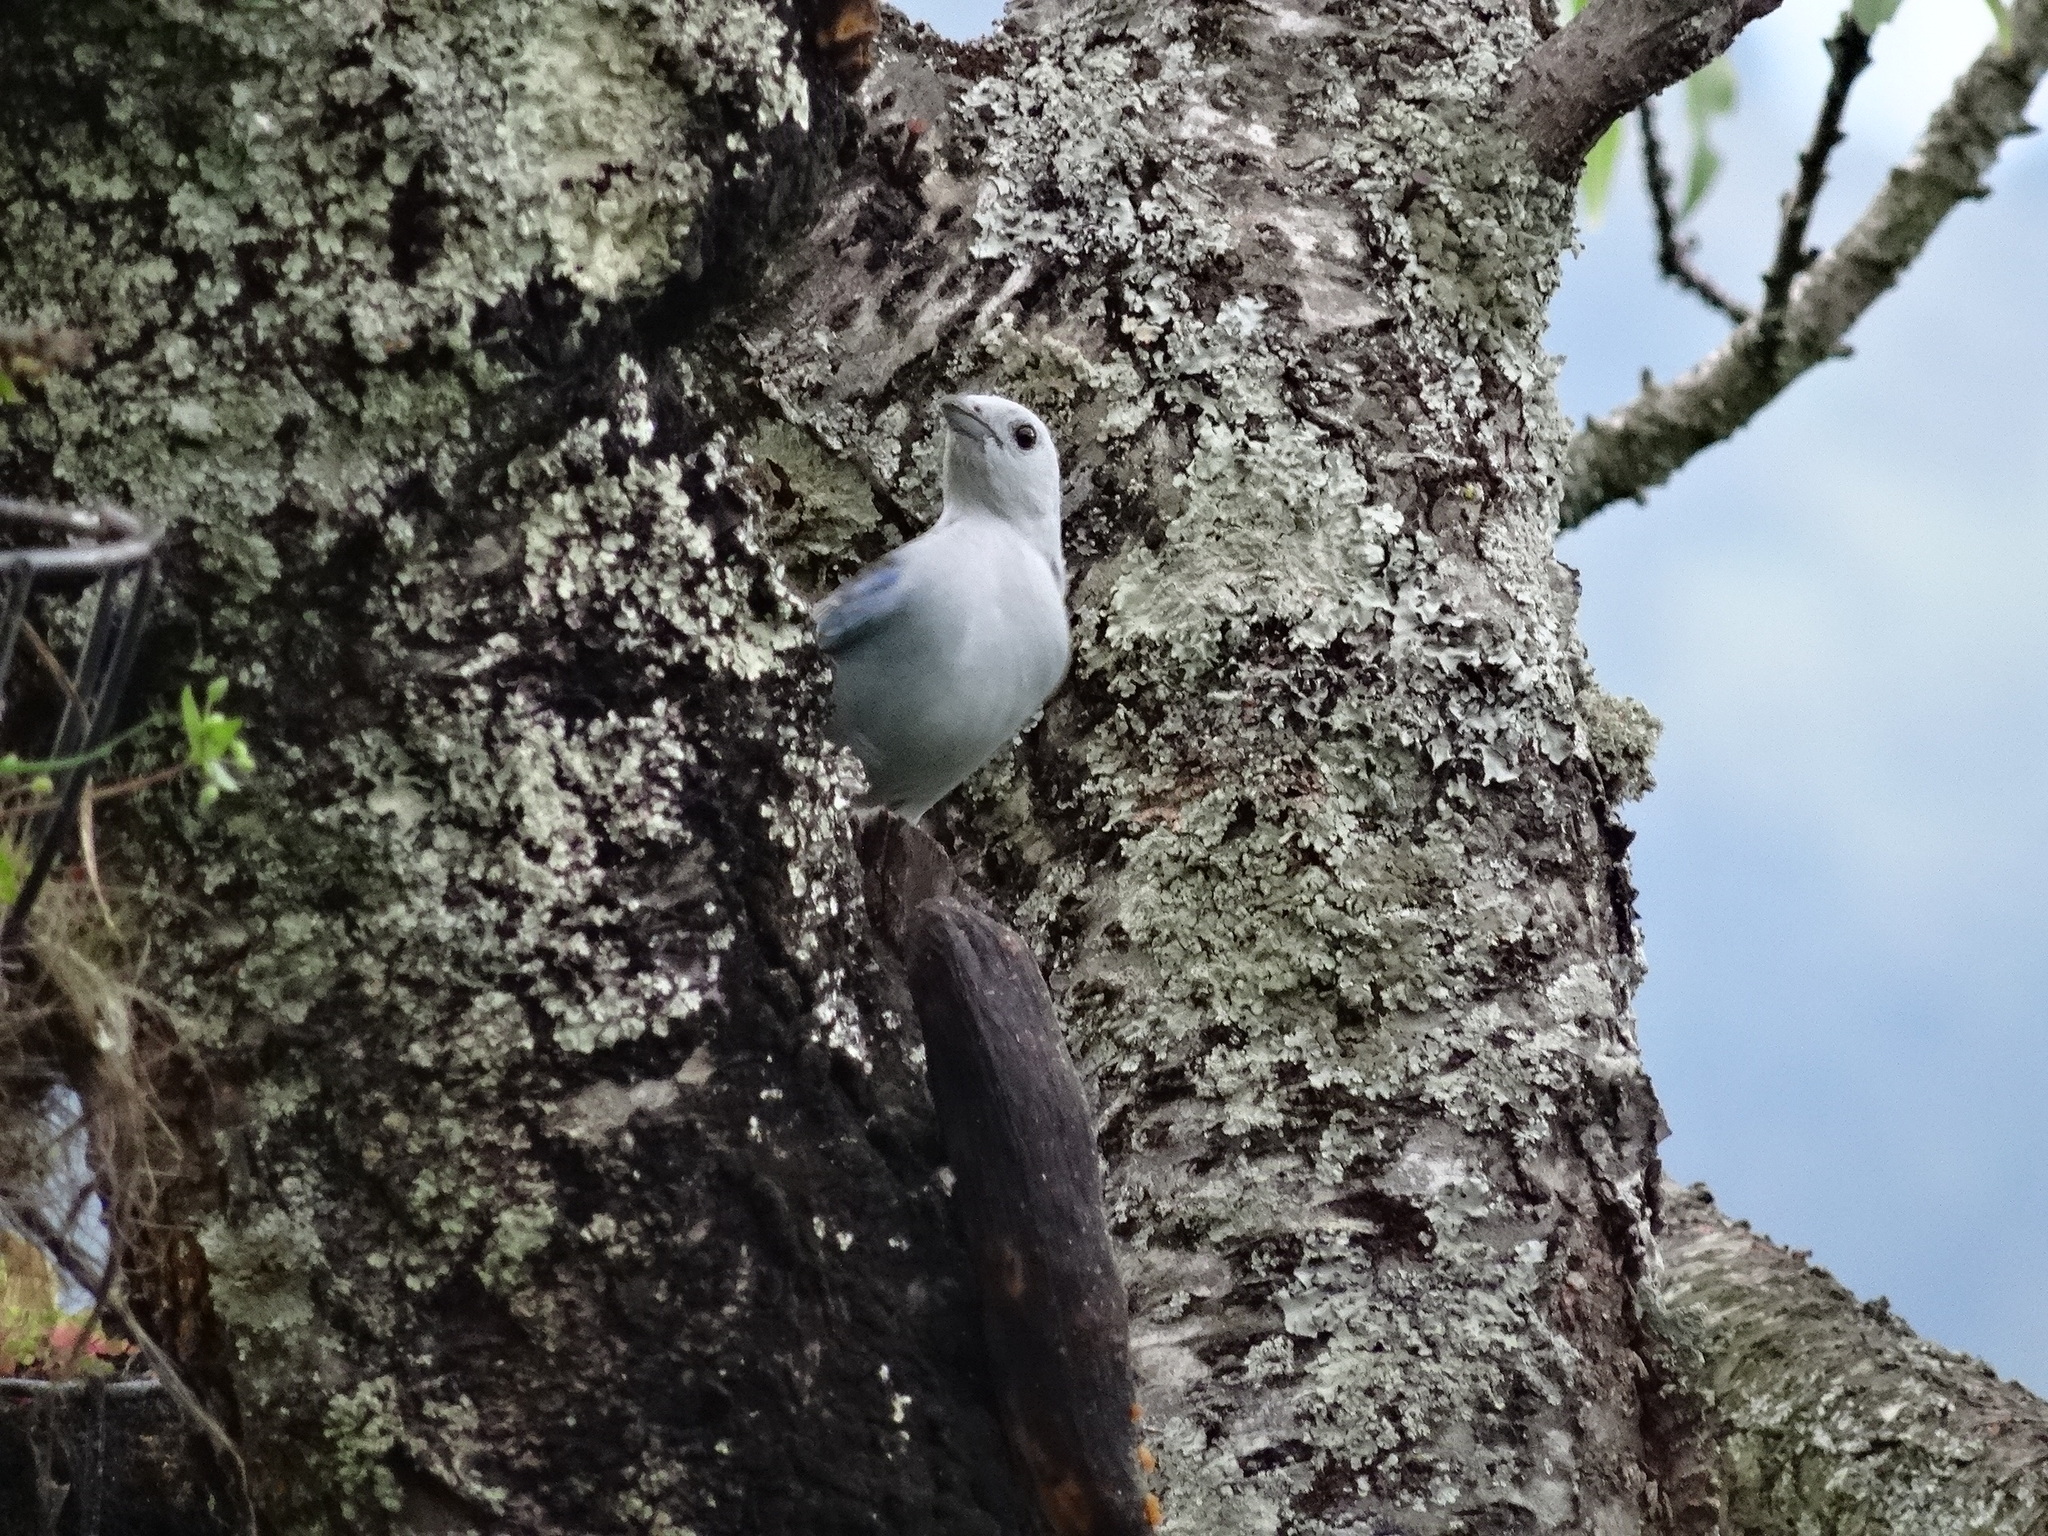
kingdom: Animalia
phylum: Chordata
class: Aves
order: Passeriformes
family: Thraupidae
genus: Thraupis
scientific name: Thraupis episcopus
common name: Blue-grey tanager
